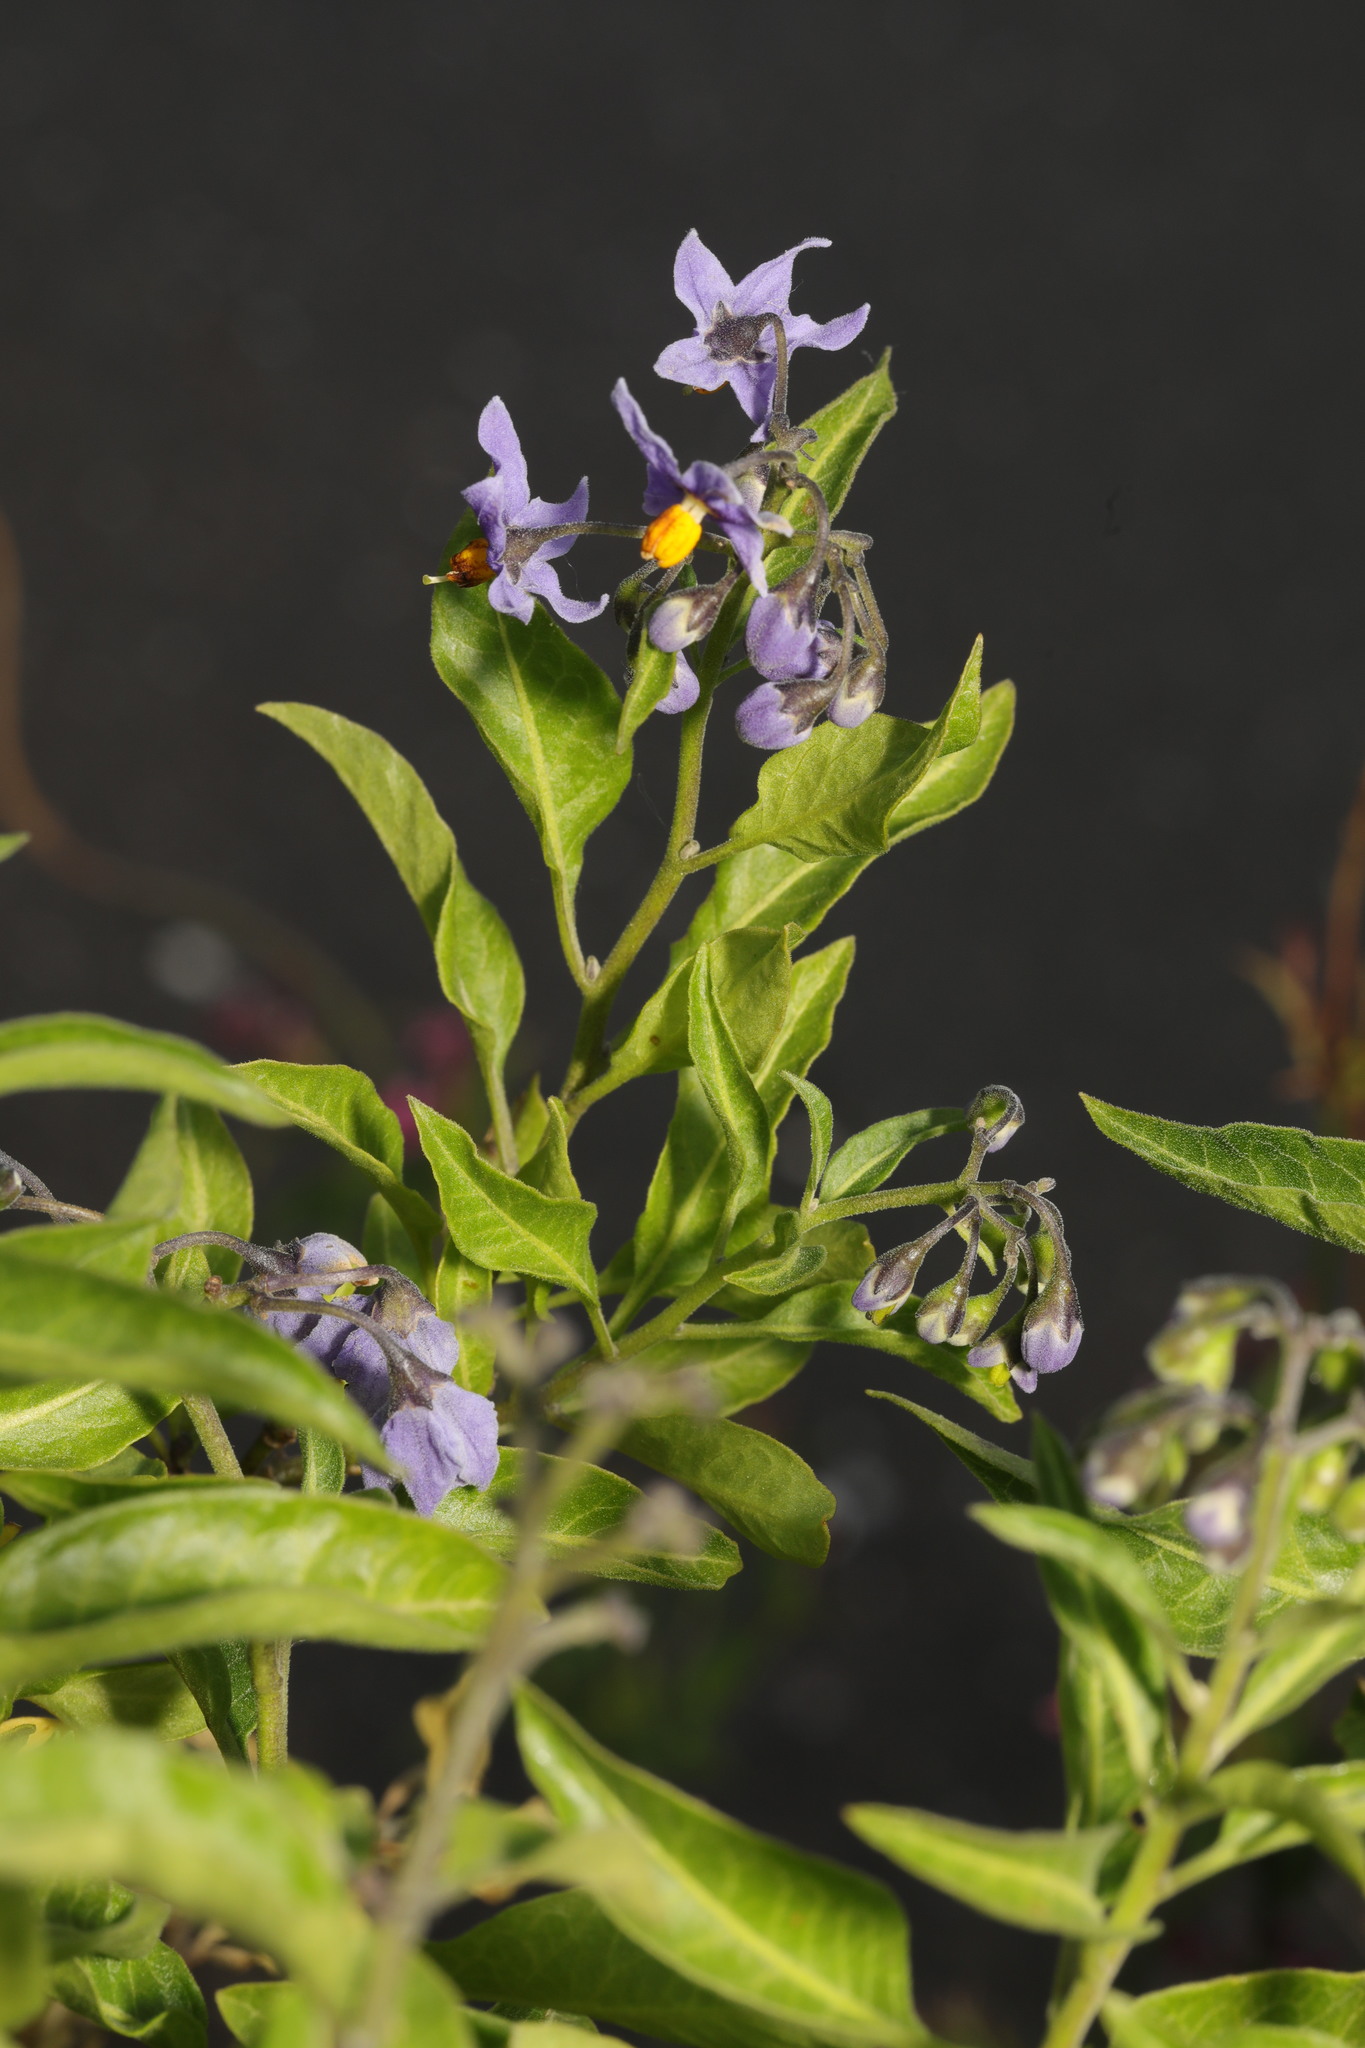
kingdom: Plantae
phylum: Tracheophyta
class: Magnoliopsida
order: Solanales
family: Solanaceae
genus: Solanum
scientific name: Solanum crispum
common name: Chilean nightshade
